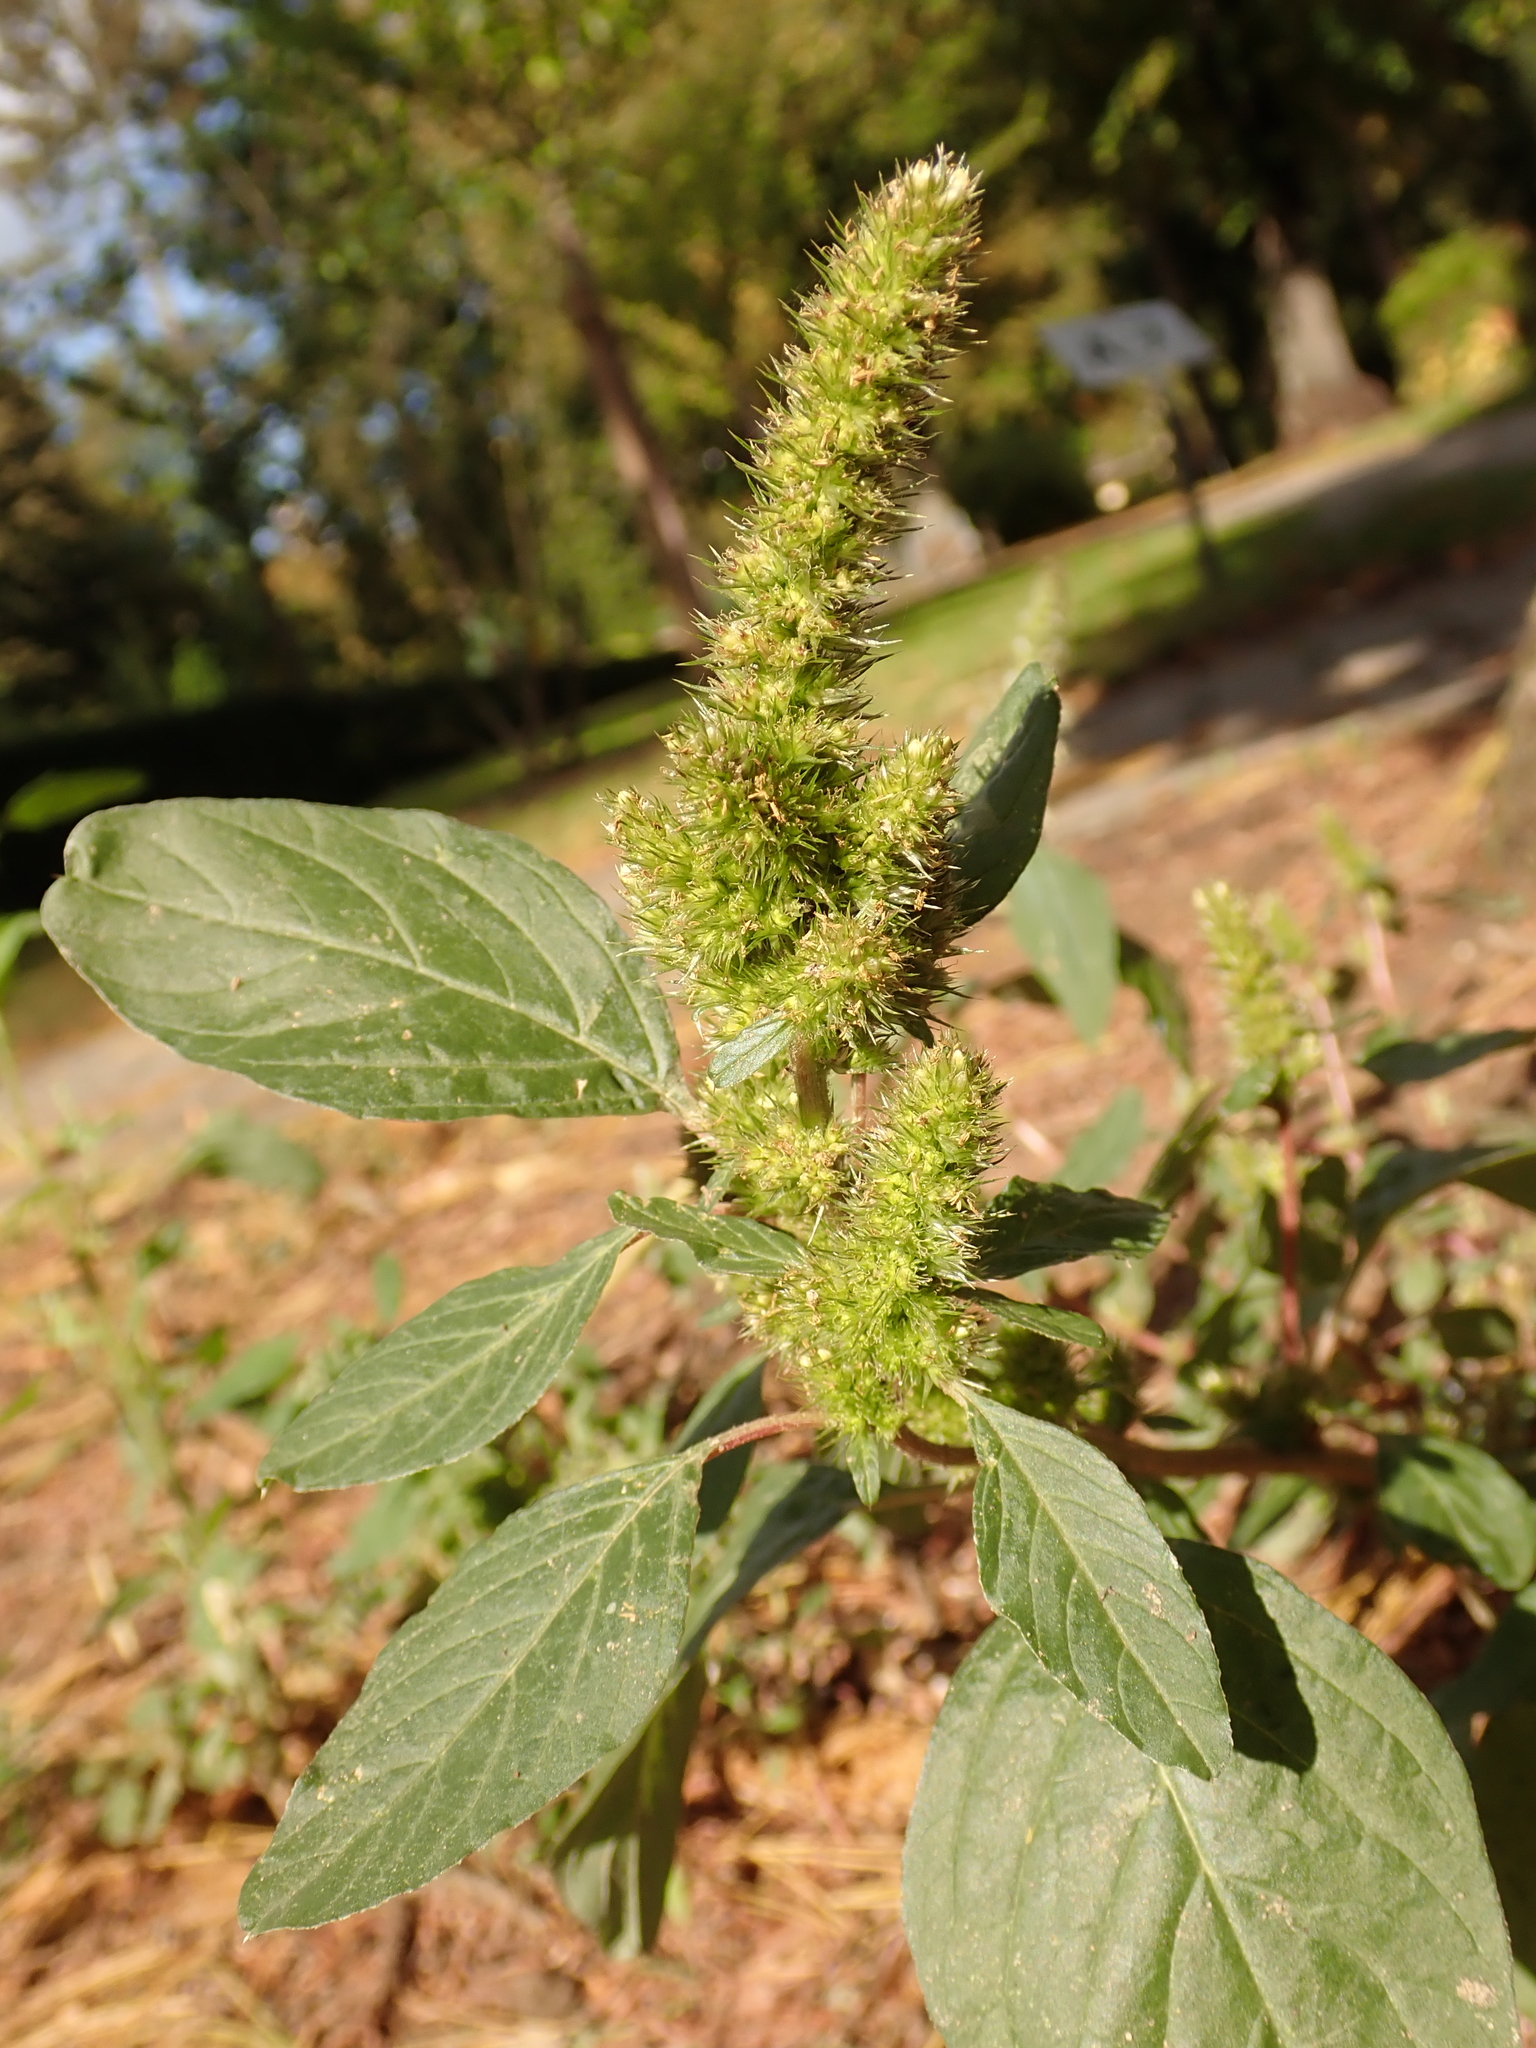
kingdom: Plantae
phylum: Tracheophyta
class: Magnoliopsida
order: Caryophyllales
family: Amaranthaceae
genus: Amaranthus
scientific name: Amaranthus retroflexus
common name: Redroot amaranth
